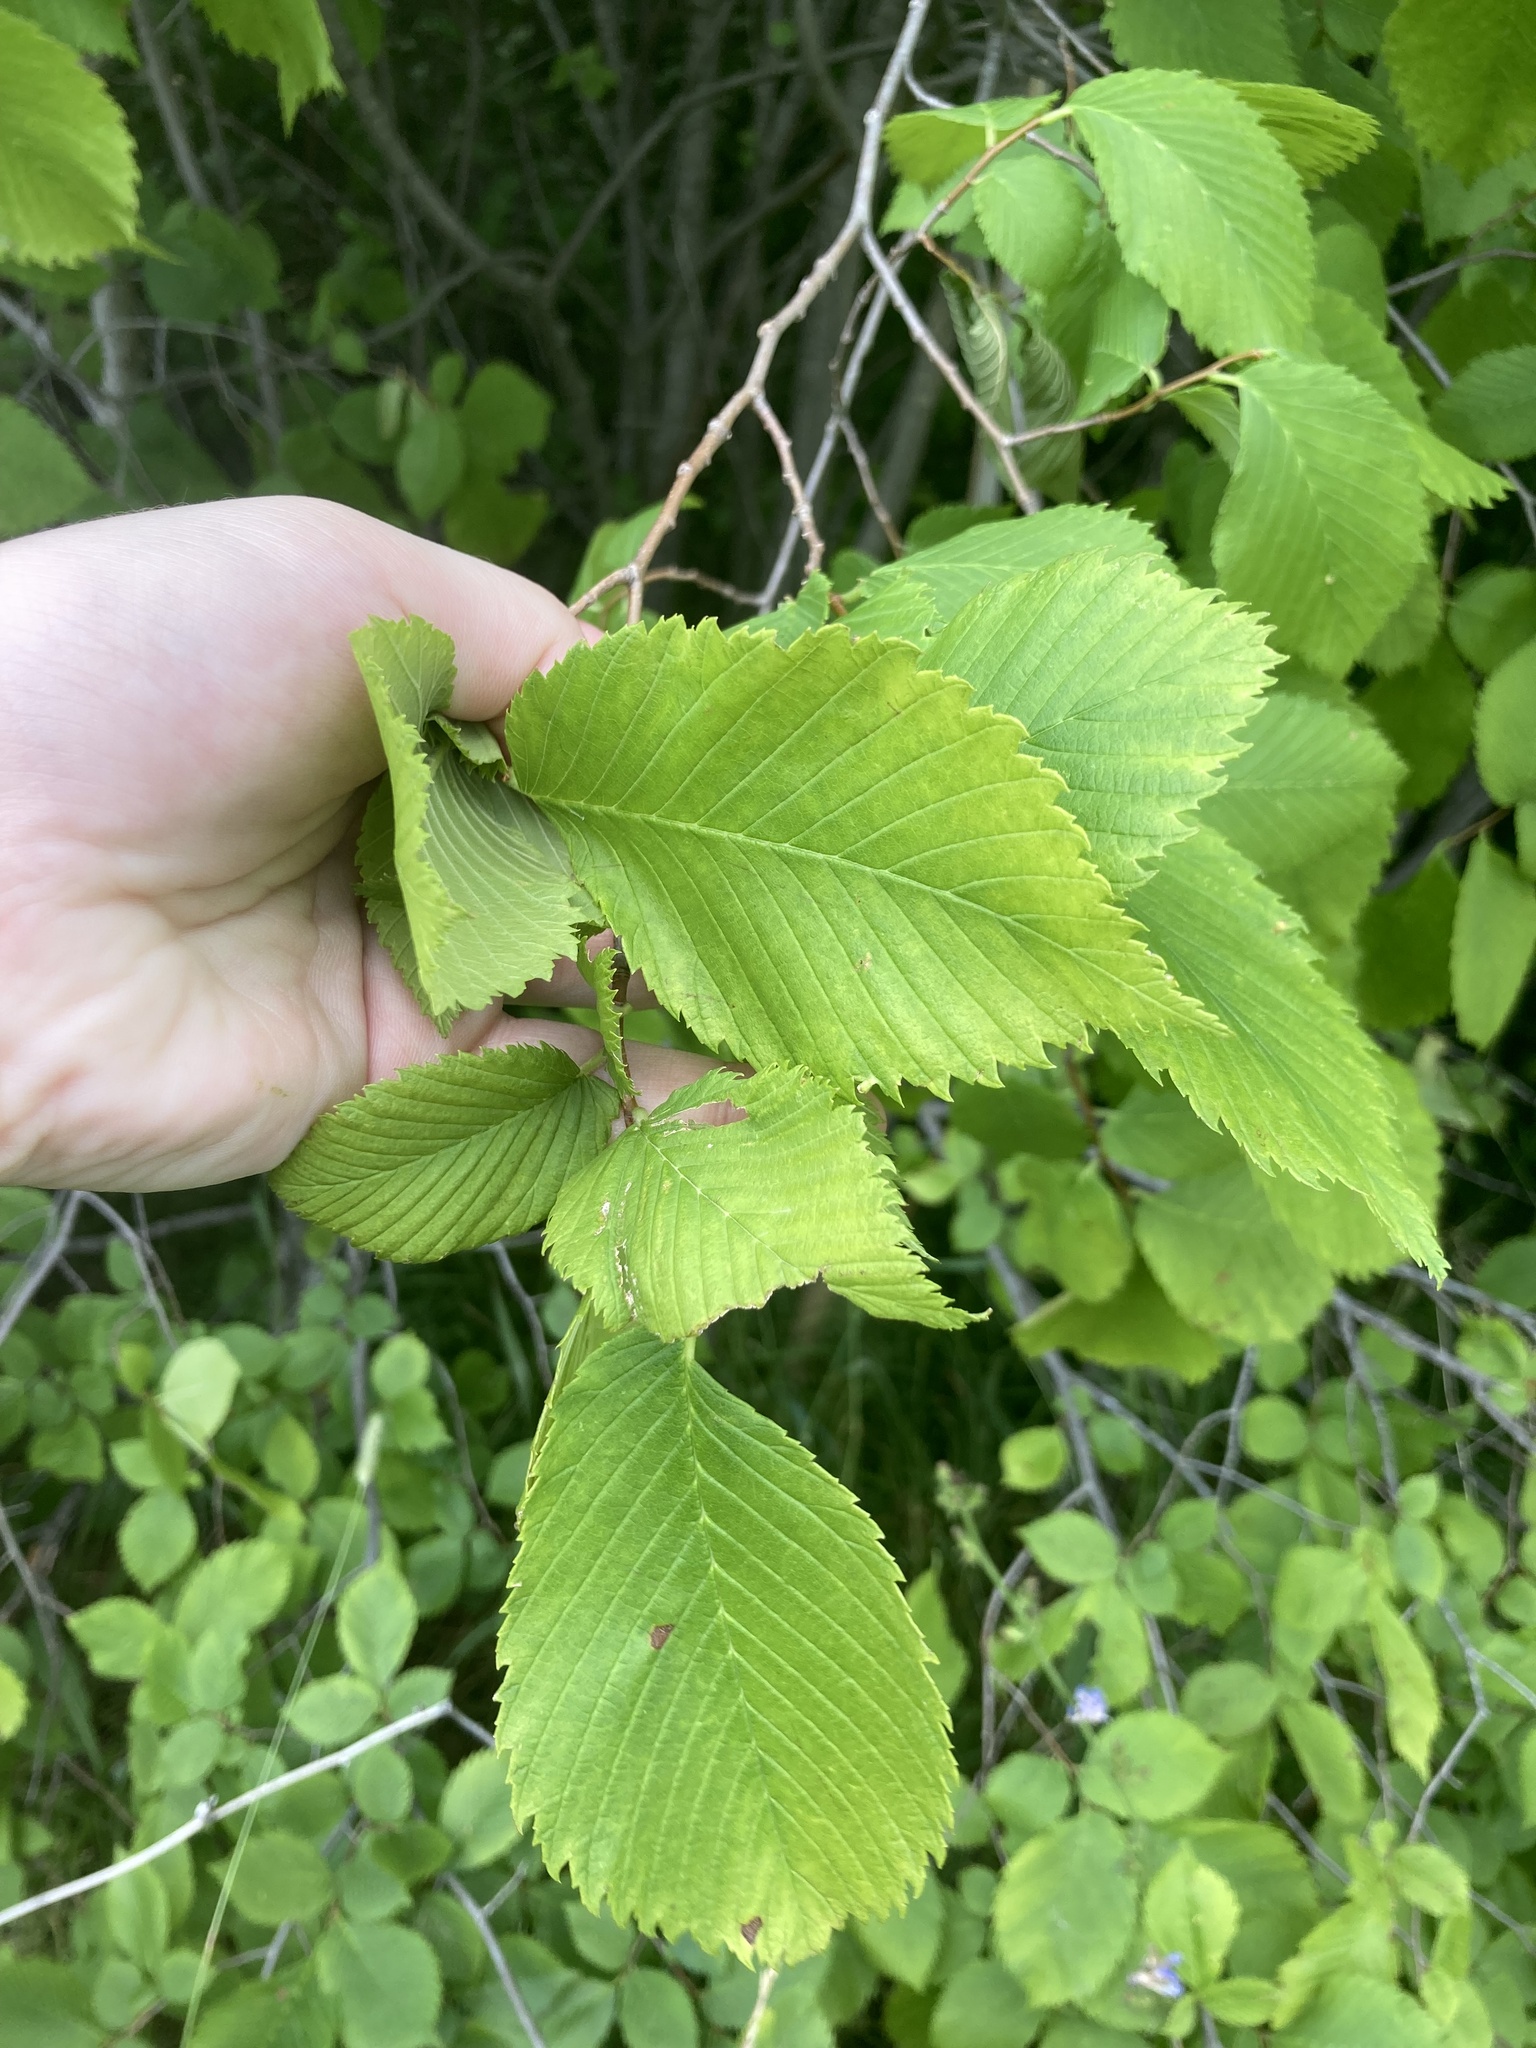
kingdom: Plantae
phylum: Tracheophyta
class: Magnoliopsida
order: Rosales
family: Ulmaceae
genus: Ulmus
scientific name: Ulmus laevis
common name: European white-elm
